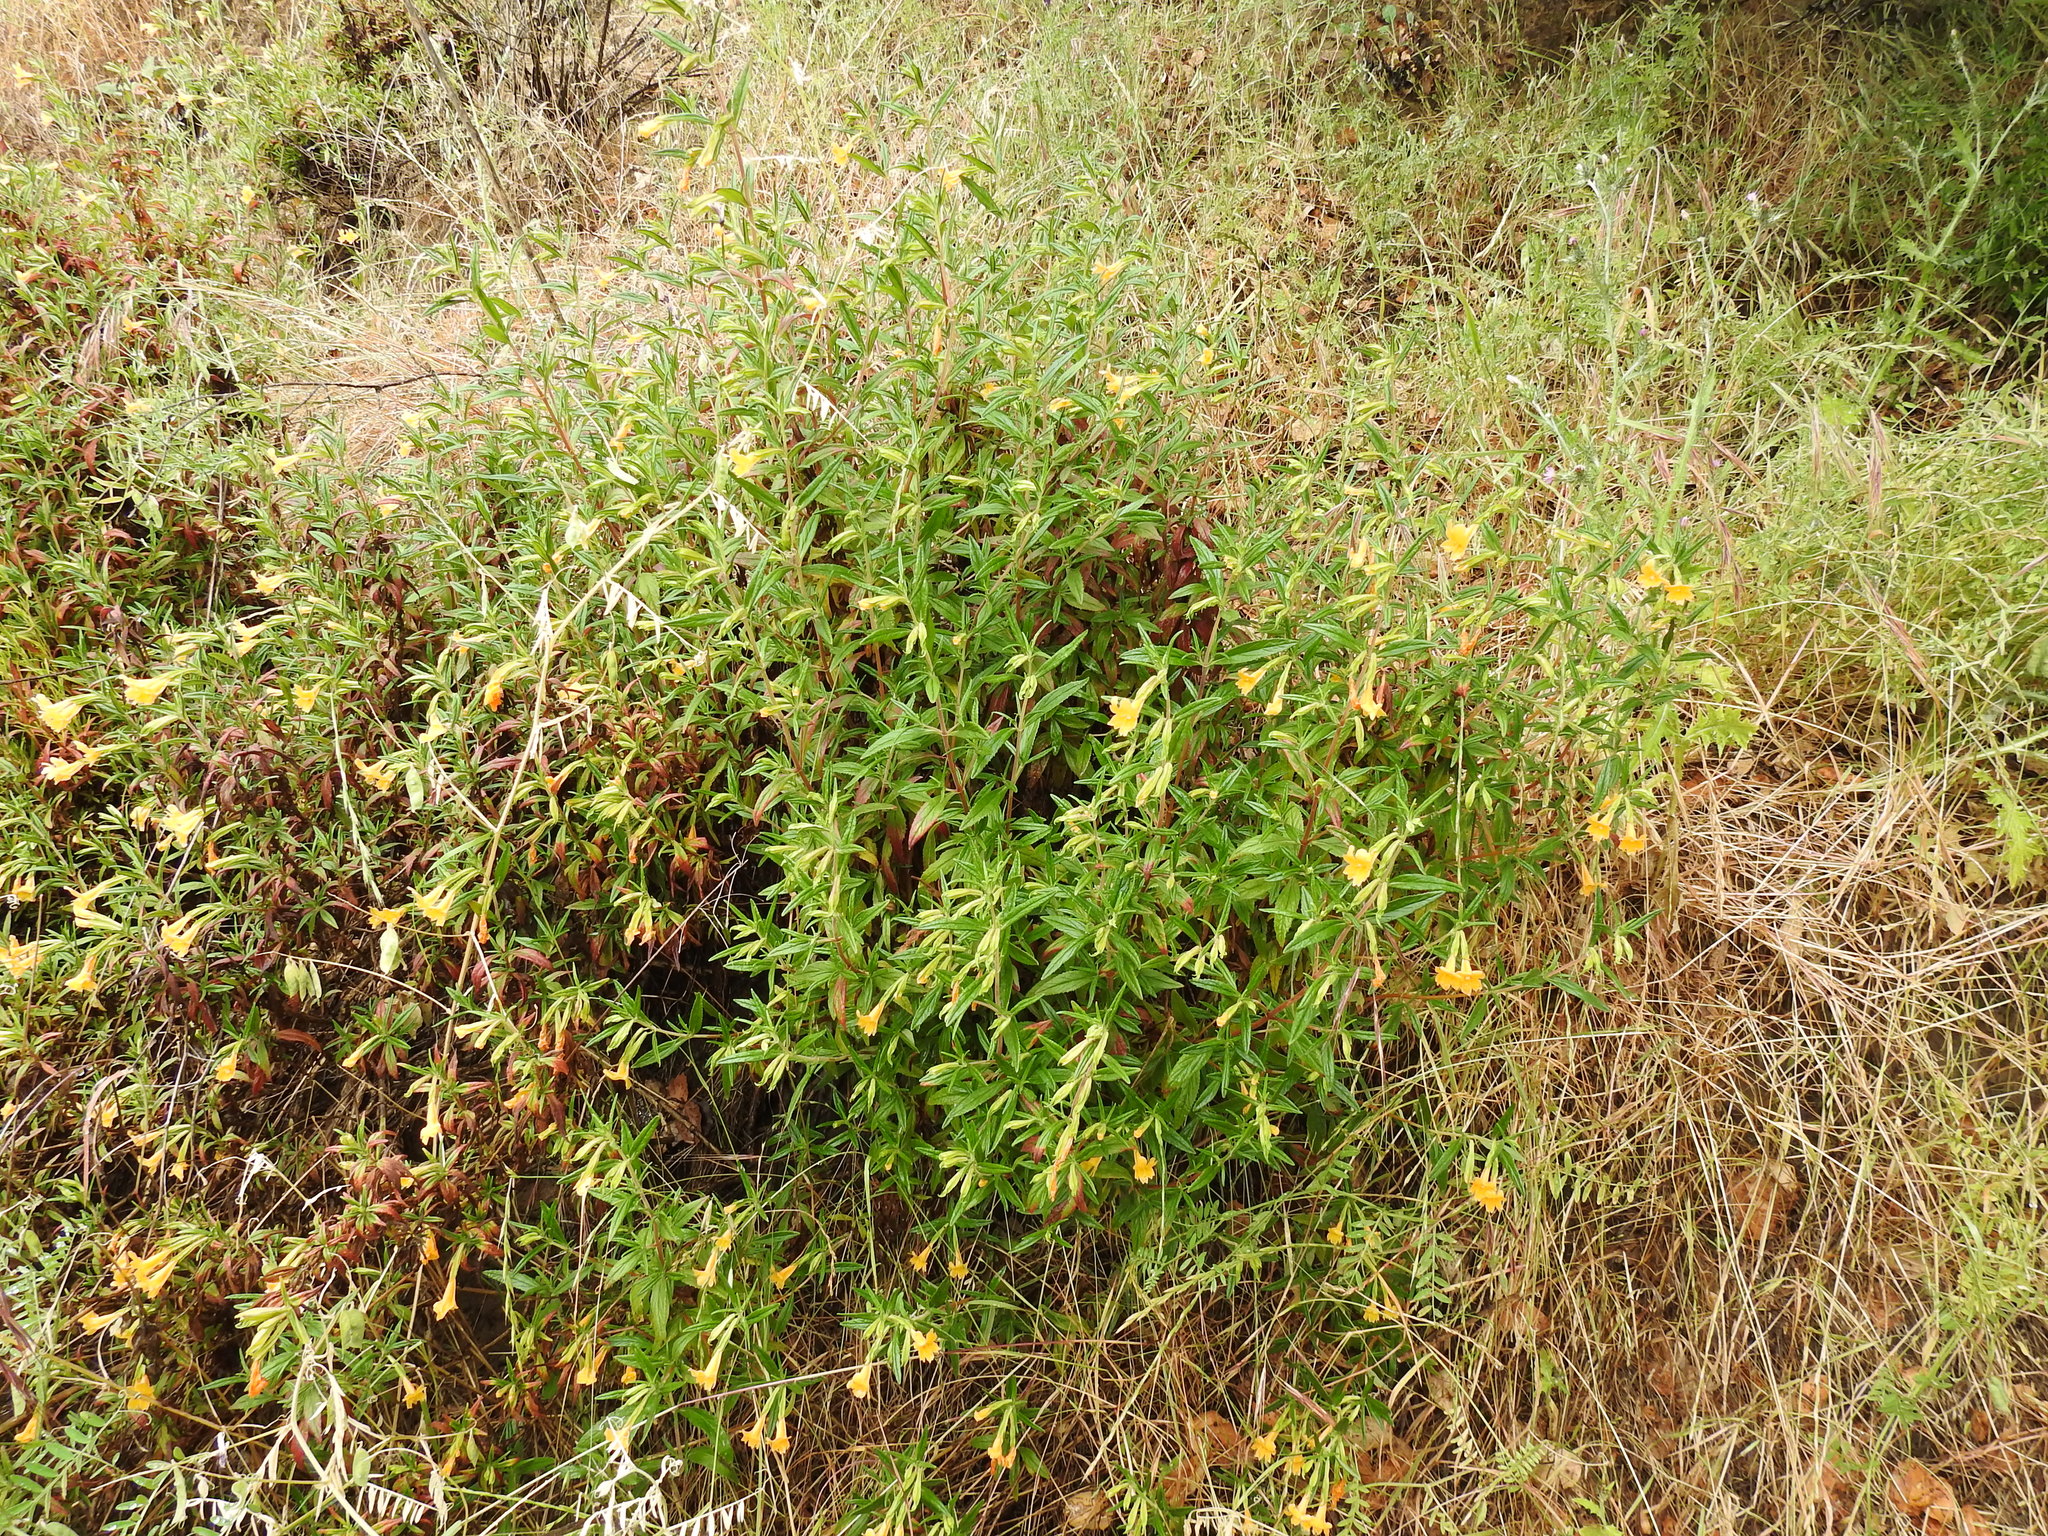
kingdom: Plantae
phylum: Tracheophyta
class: Magnoliopsida
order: Lamiales
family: Phrymaceae
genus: Diplacus
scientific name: Diplacus aurantiacus
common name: Bush monkey-flower
